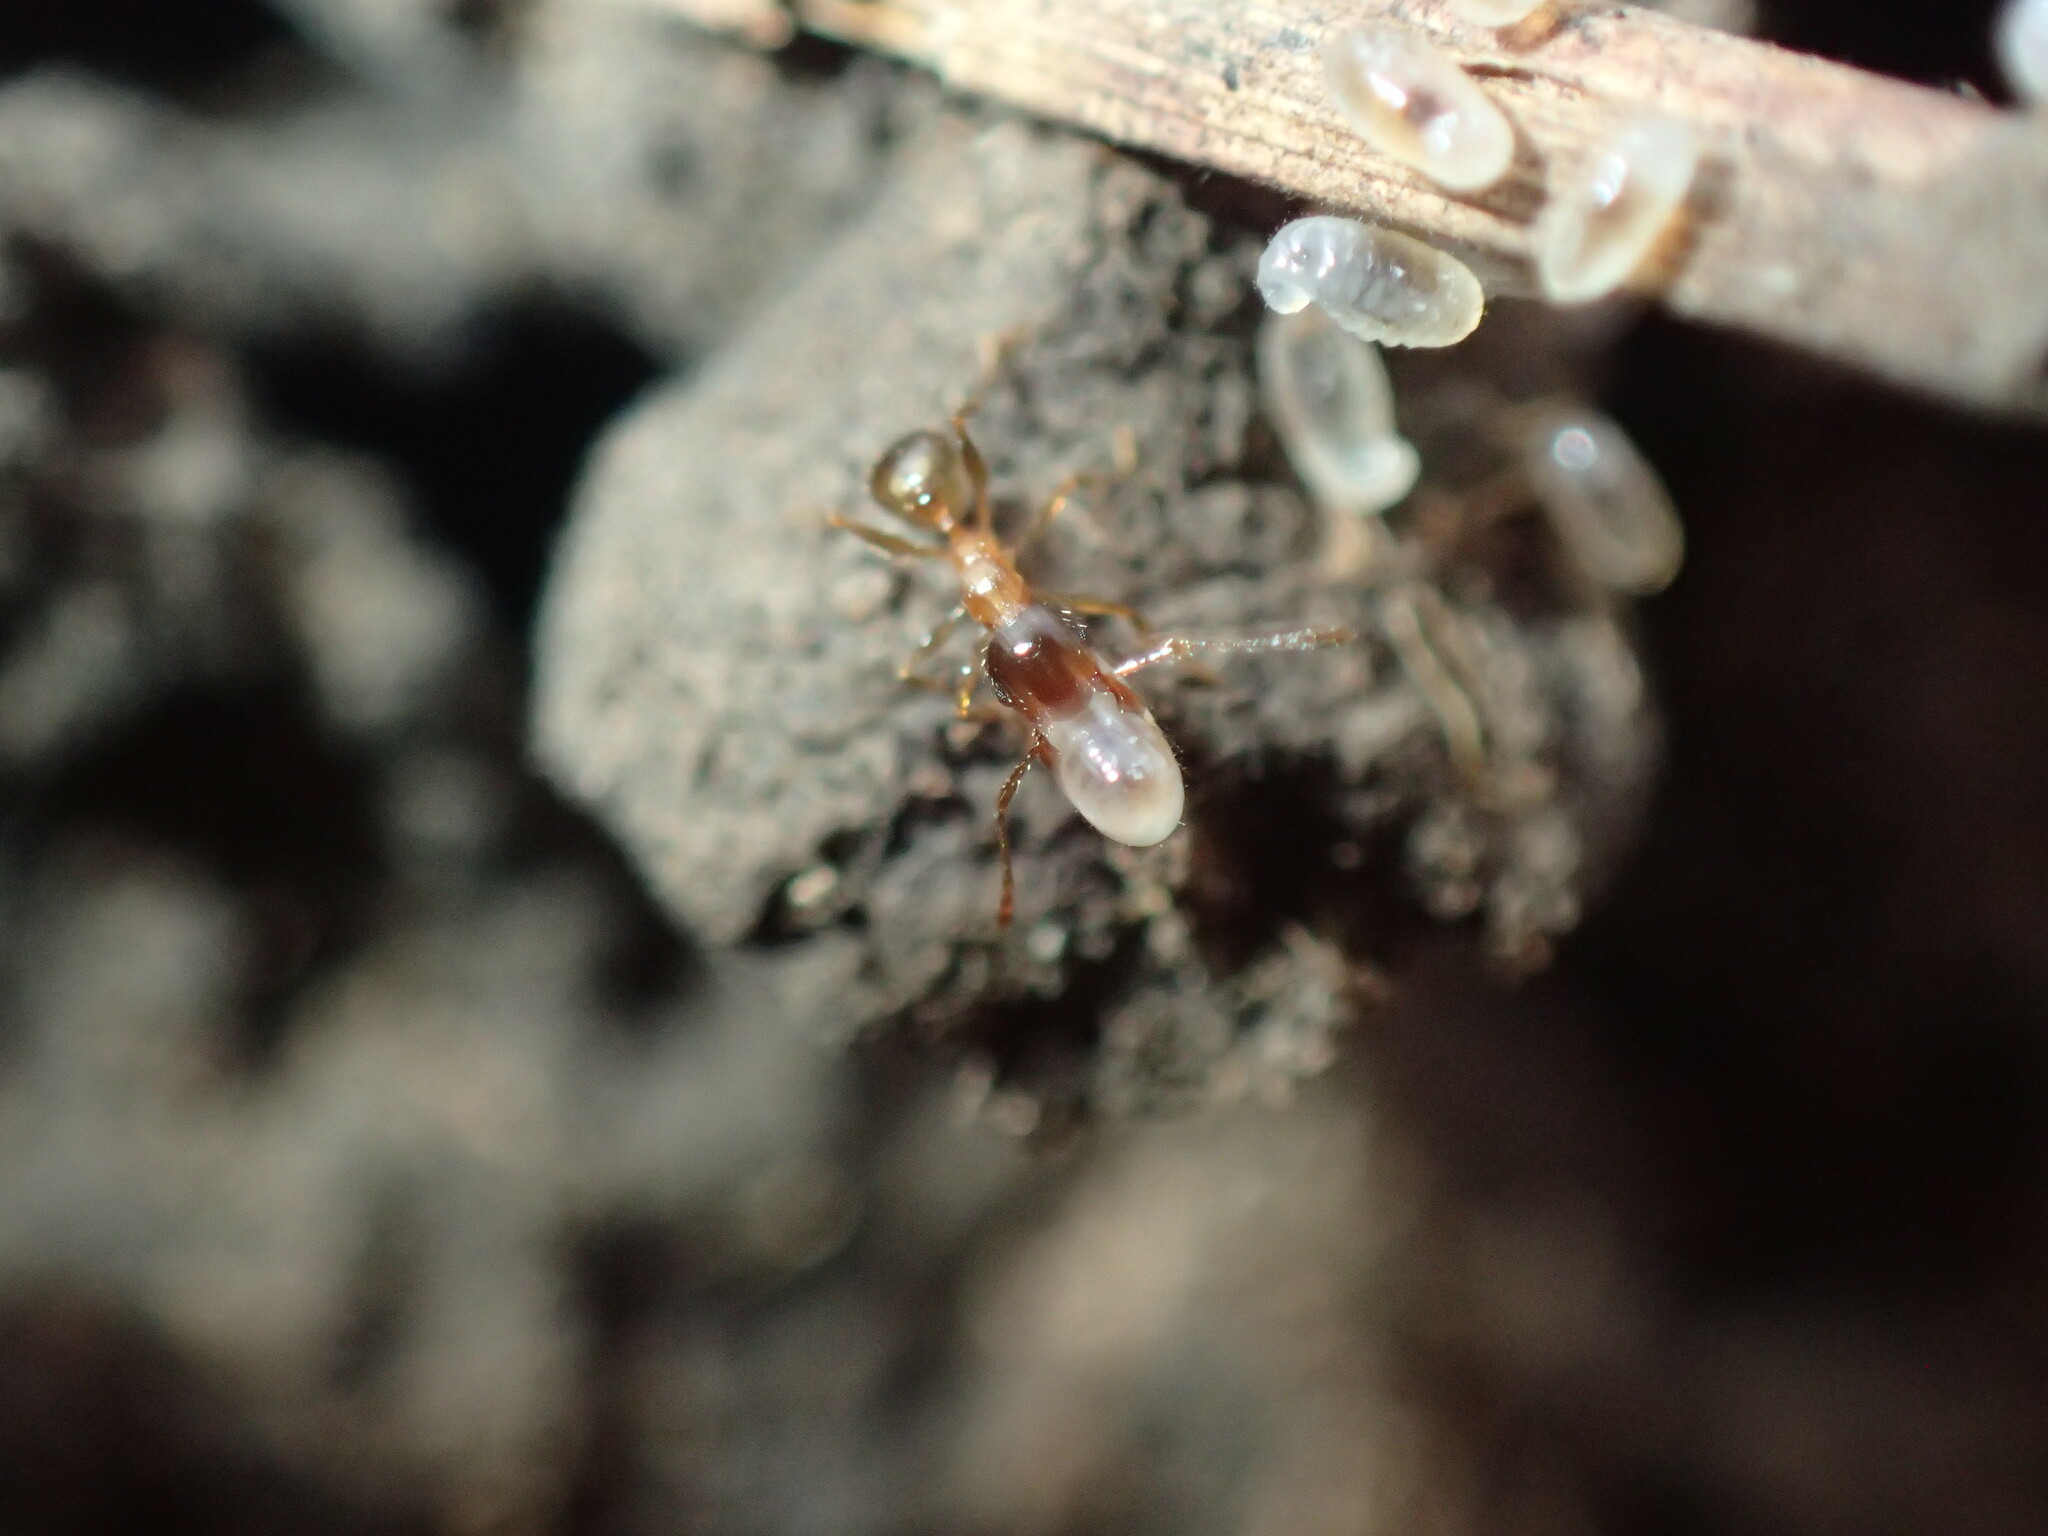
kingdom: Animalia
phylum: Arthropoda
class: Insecta
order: Hymenoptera
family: Formicidae
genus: Pheidole
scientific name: Pheidole megacephala
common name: Bigheaded ant
